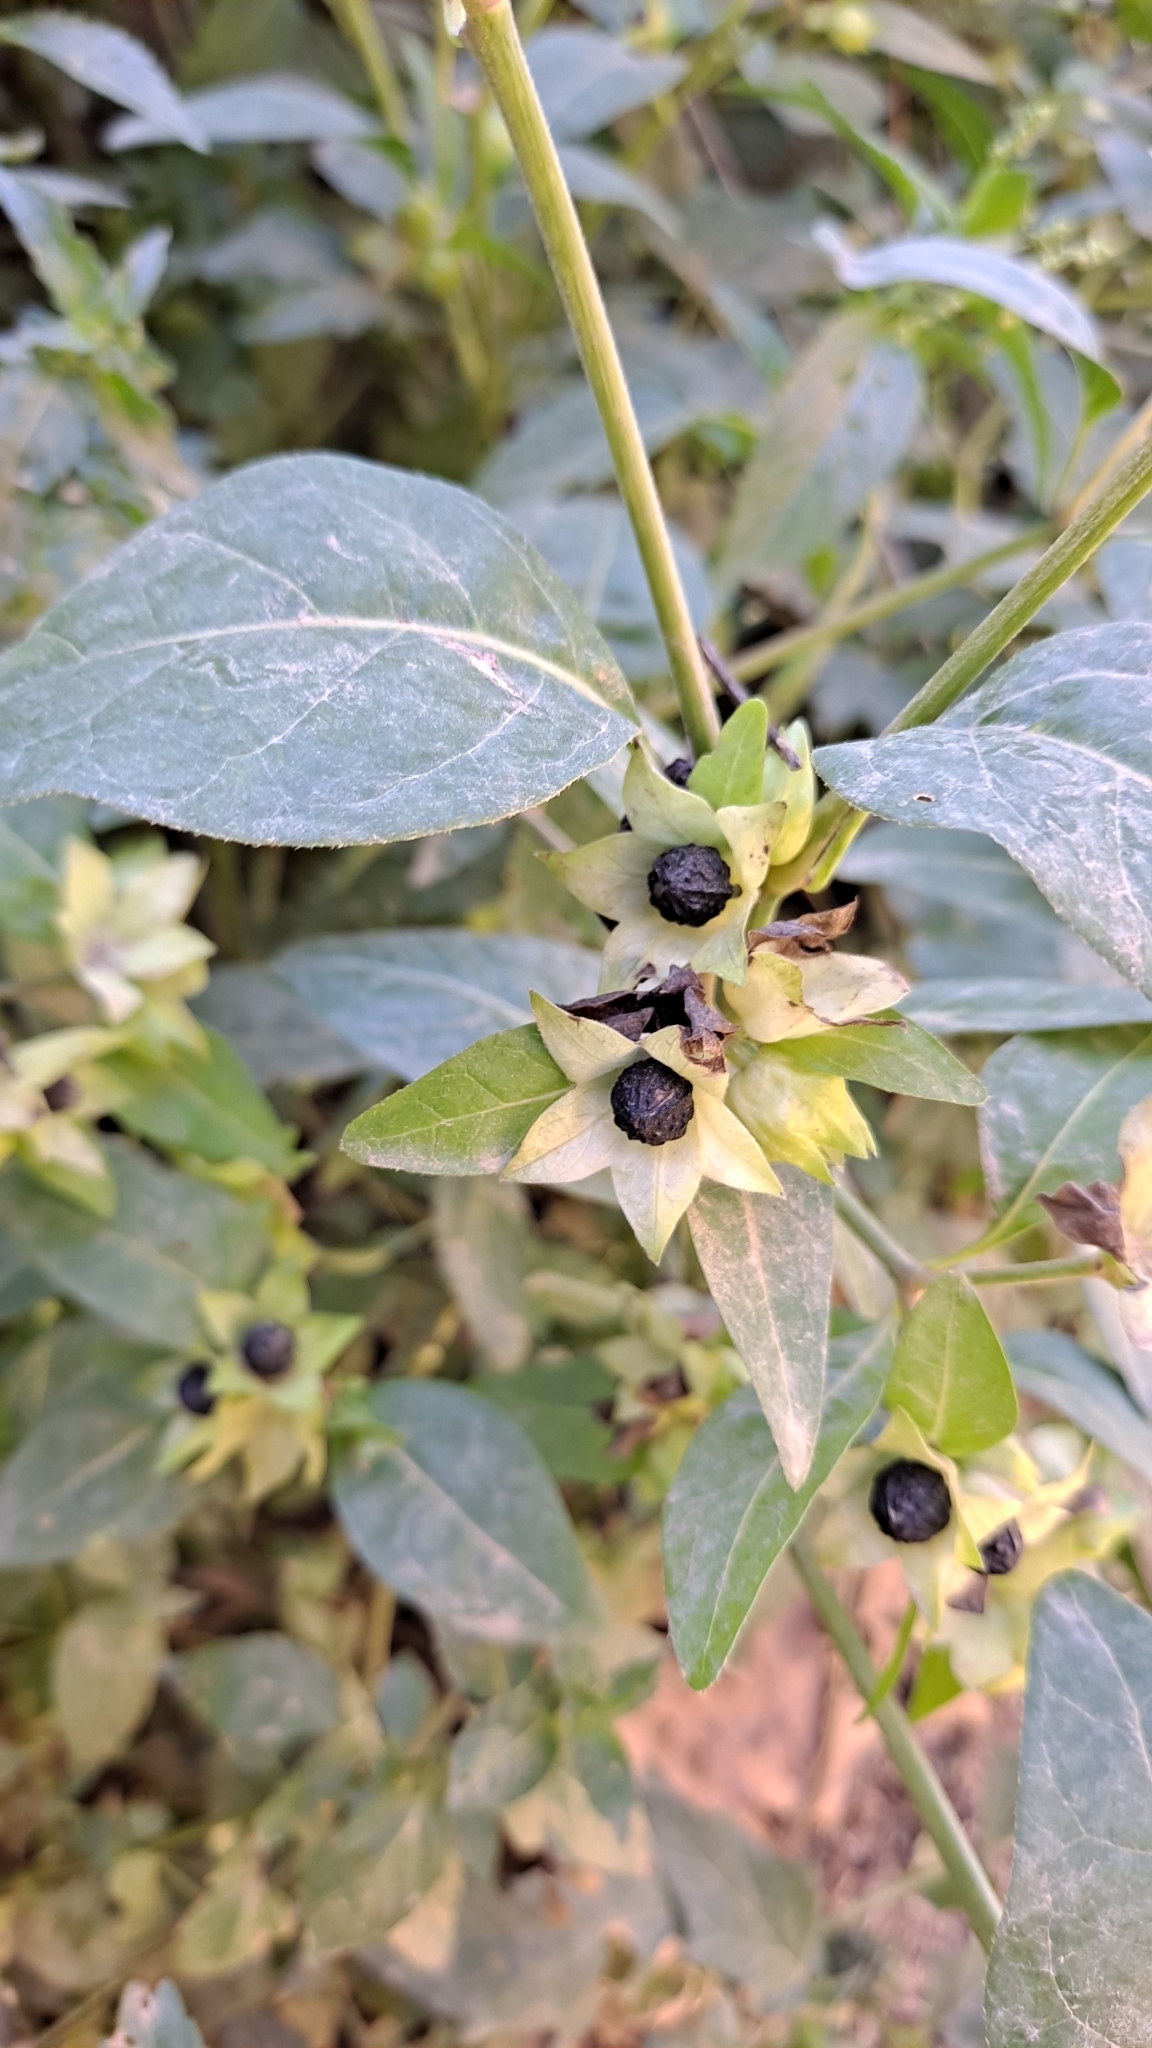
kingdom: Plantae
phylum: Tracheophyta
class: Magnoliopsida
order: Caryophyllales
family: Nyctaginaceae
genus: Mirabilis
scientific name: Mirabilis jalapa
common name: Marvel-of-peru
